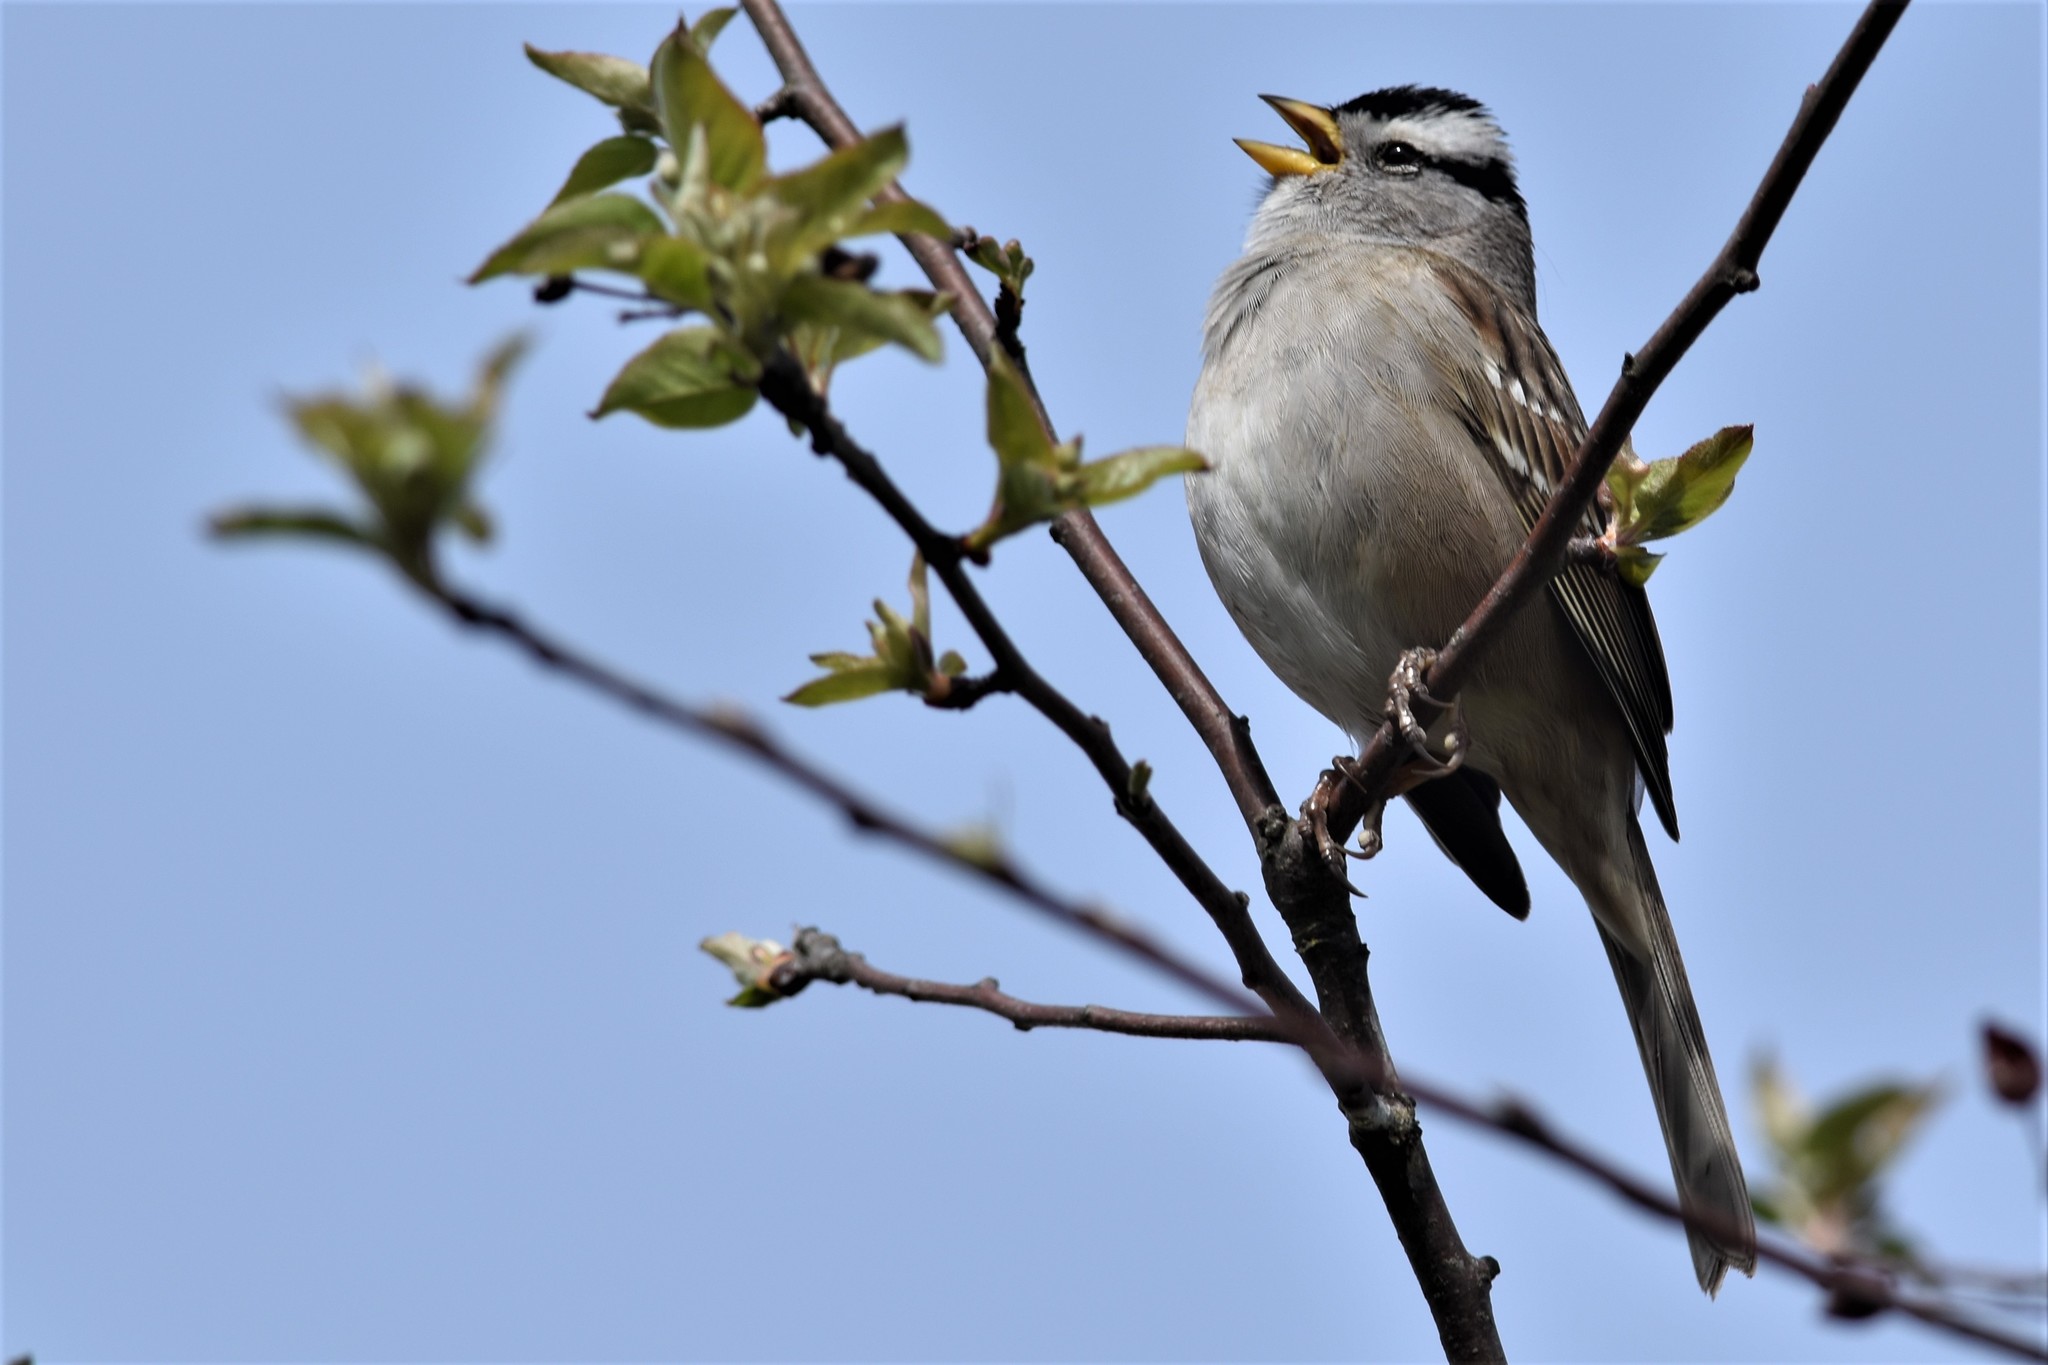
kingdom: Animalia
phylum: Chordata
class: Aves
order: Passeriformes
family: Passerellidae
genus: Zonotrichia
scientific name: Zonotrichia leucophrys
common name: White-crowned sparrow
